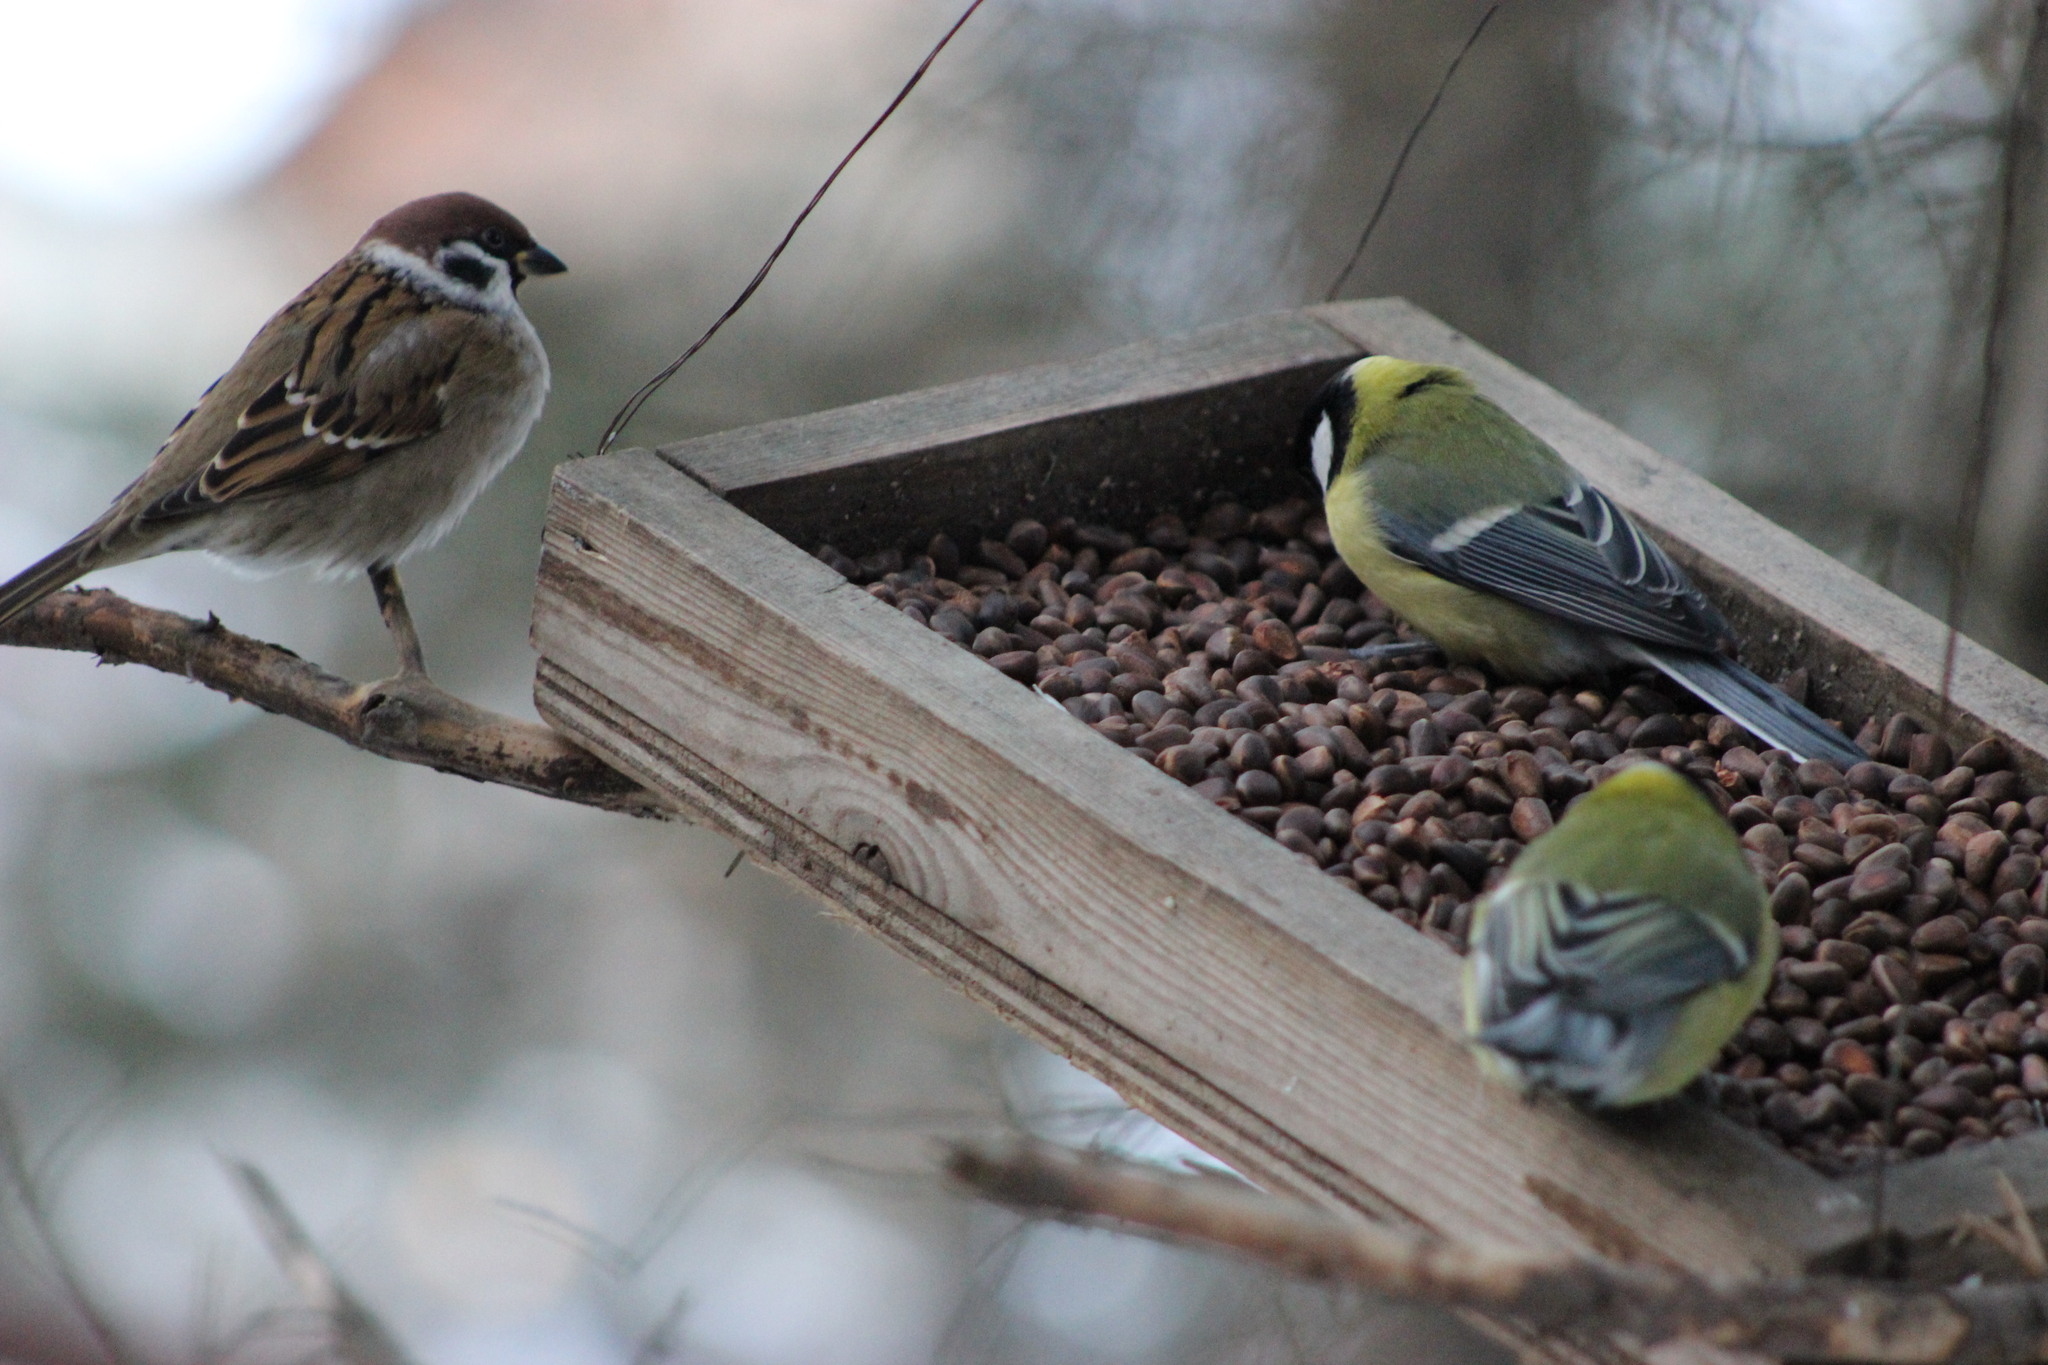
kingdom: Animalia
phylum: Chordata
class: Aves
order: Passeriformes
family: Passeridae
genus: Passer
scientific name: Passer montanus
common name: Eurasian tree sparrow
